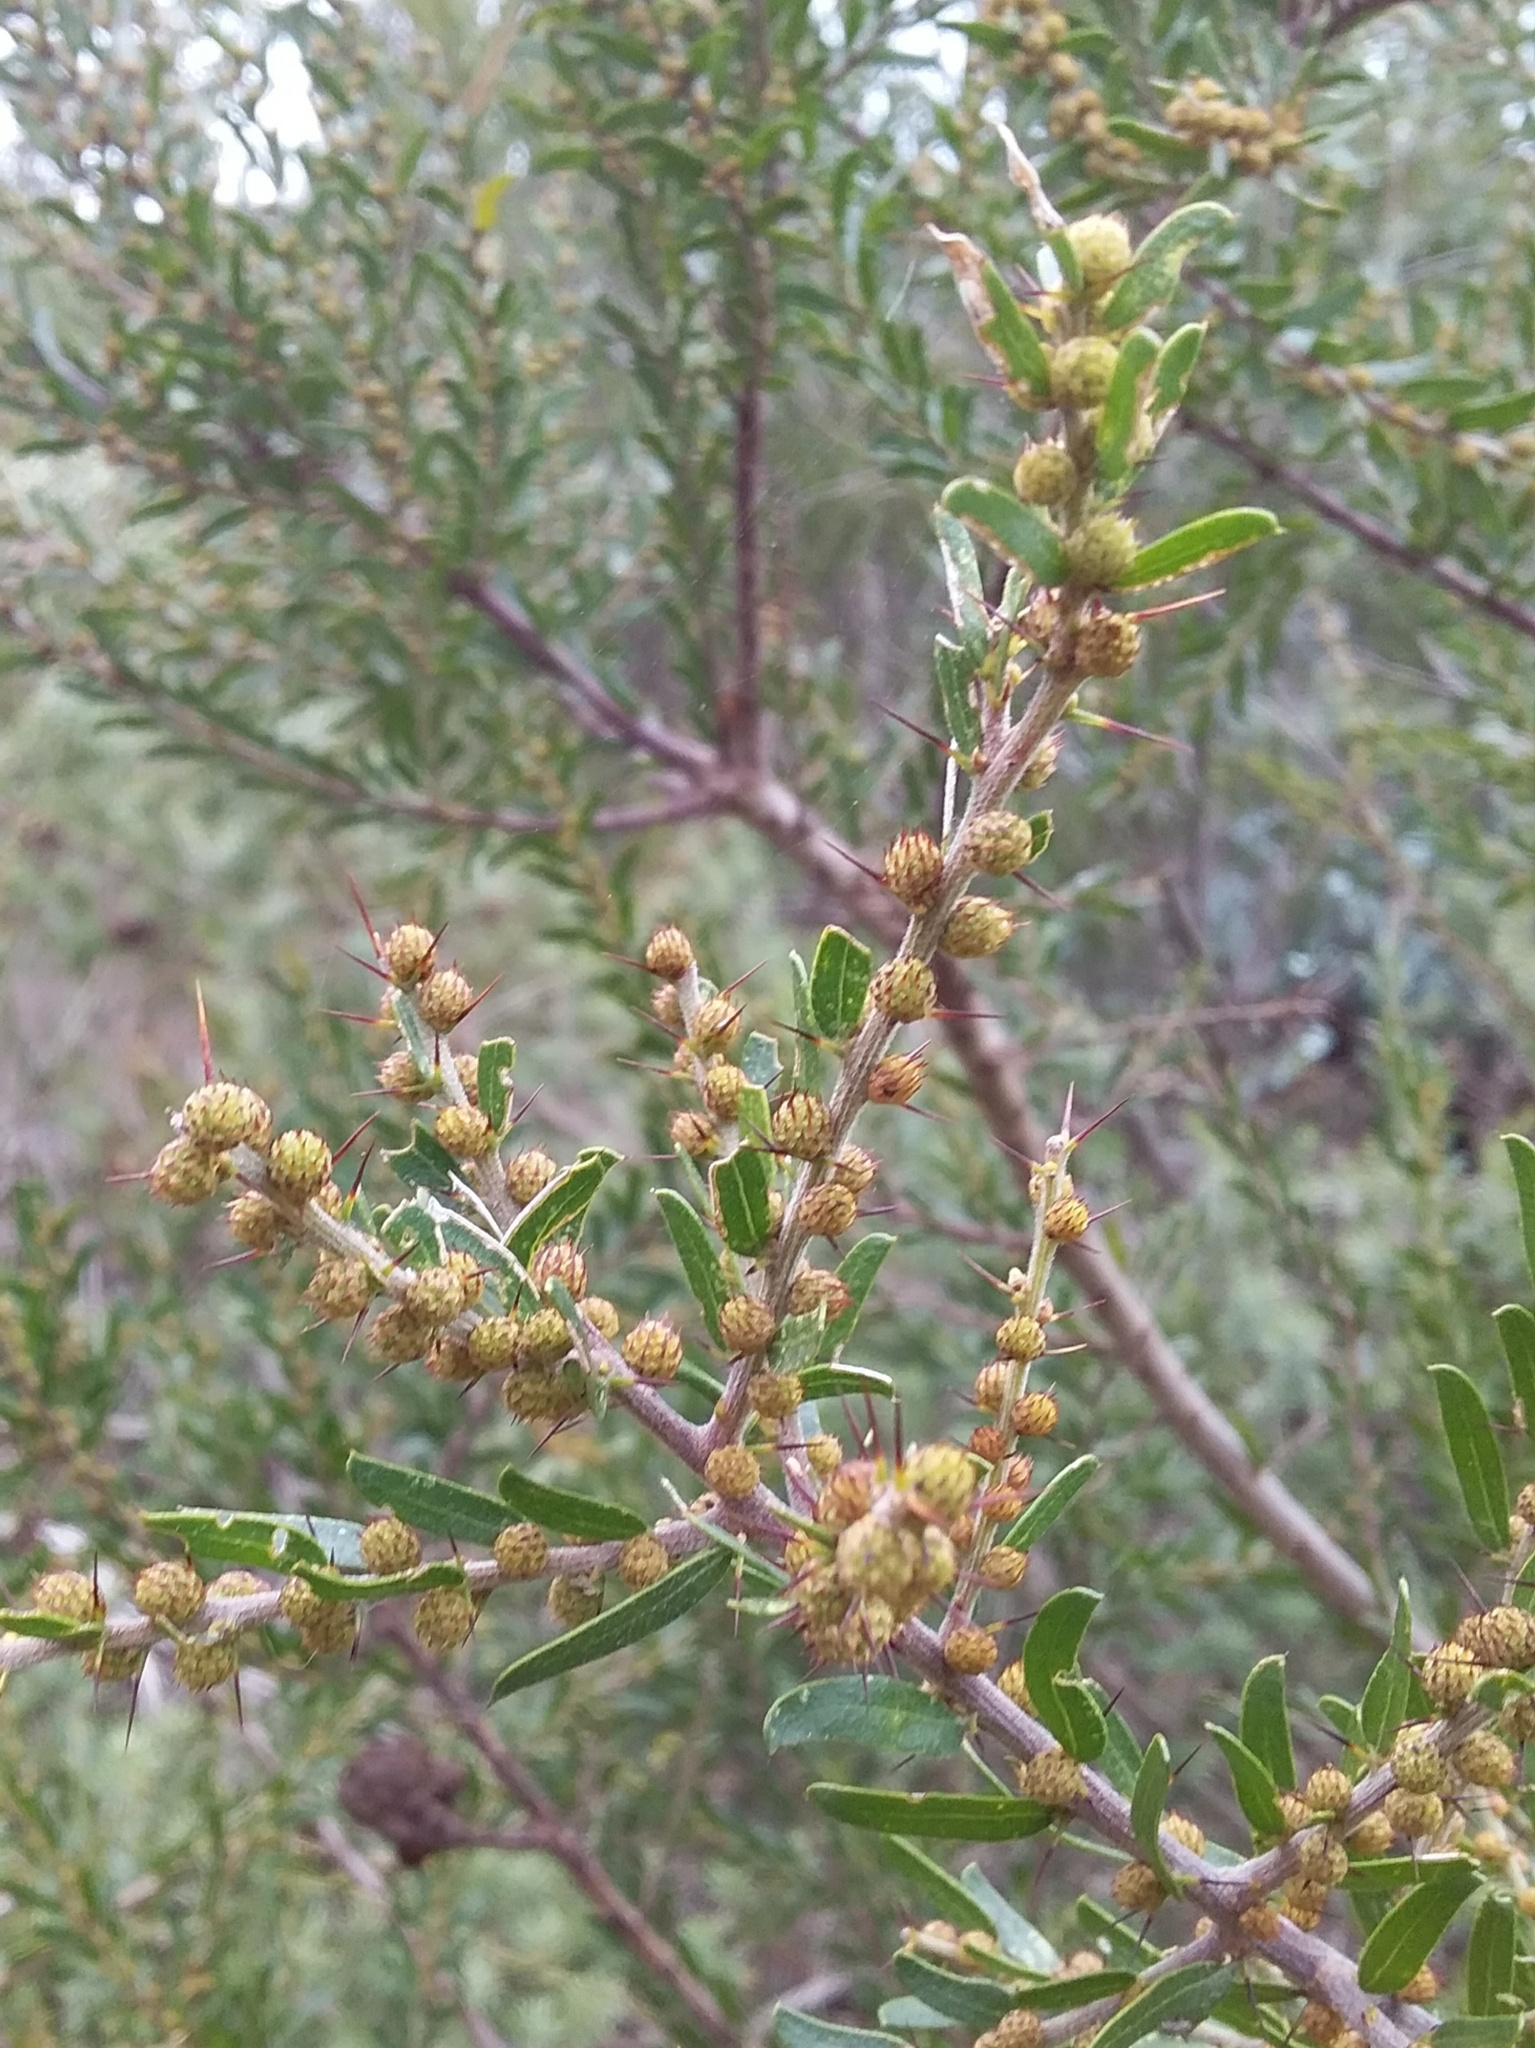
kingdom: Plantae
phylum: Tracheophyta
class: Magnoliopsida
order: Fabales
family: Fabaceae
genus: Acacia
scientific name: Acacia paradoxa
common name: Paradox acacia
